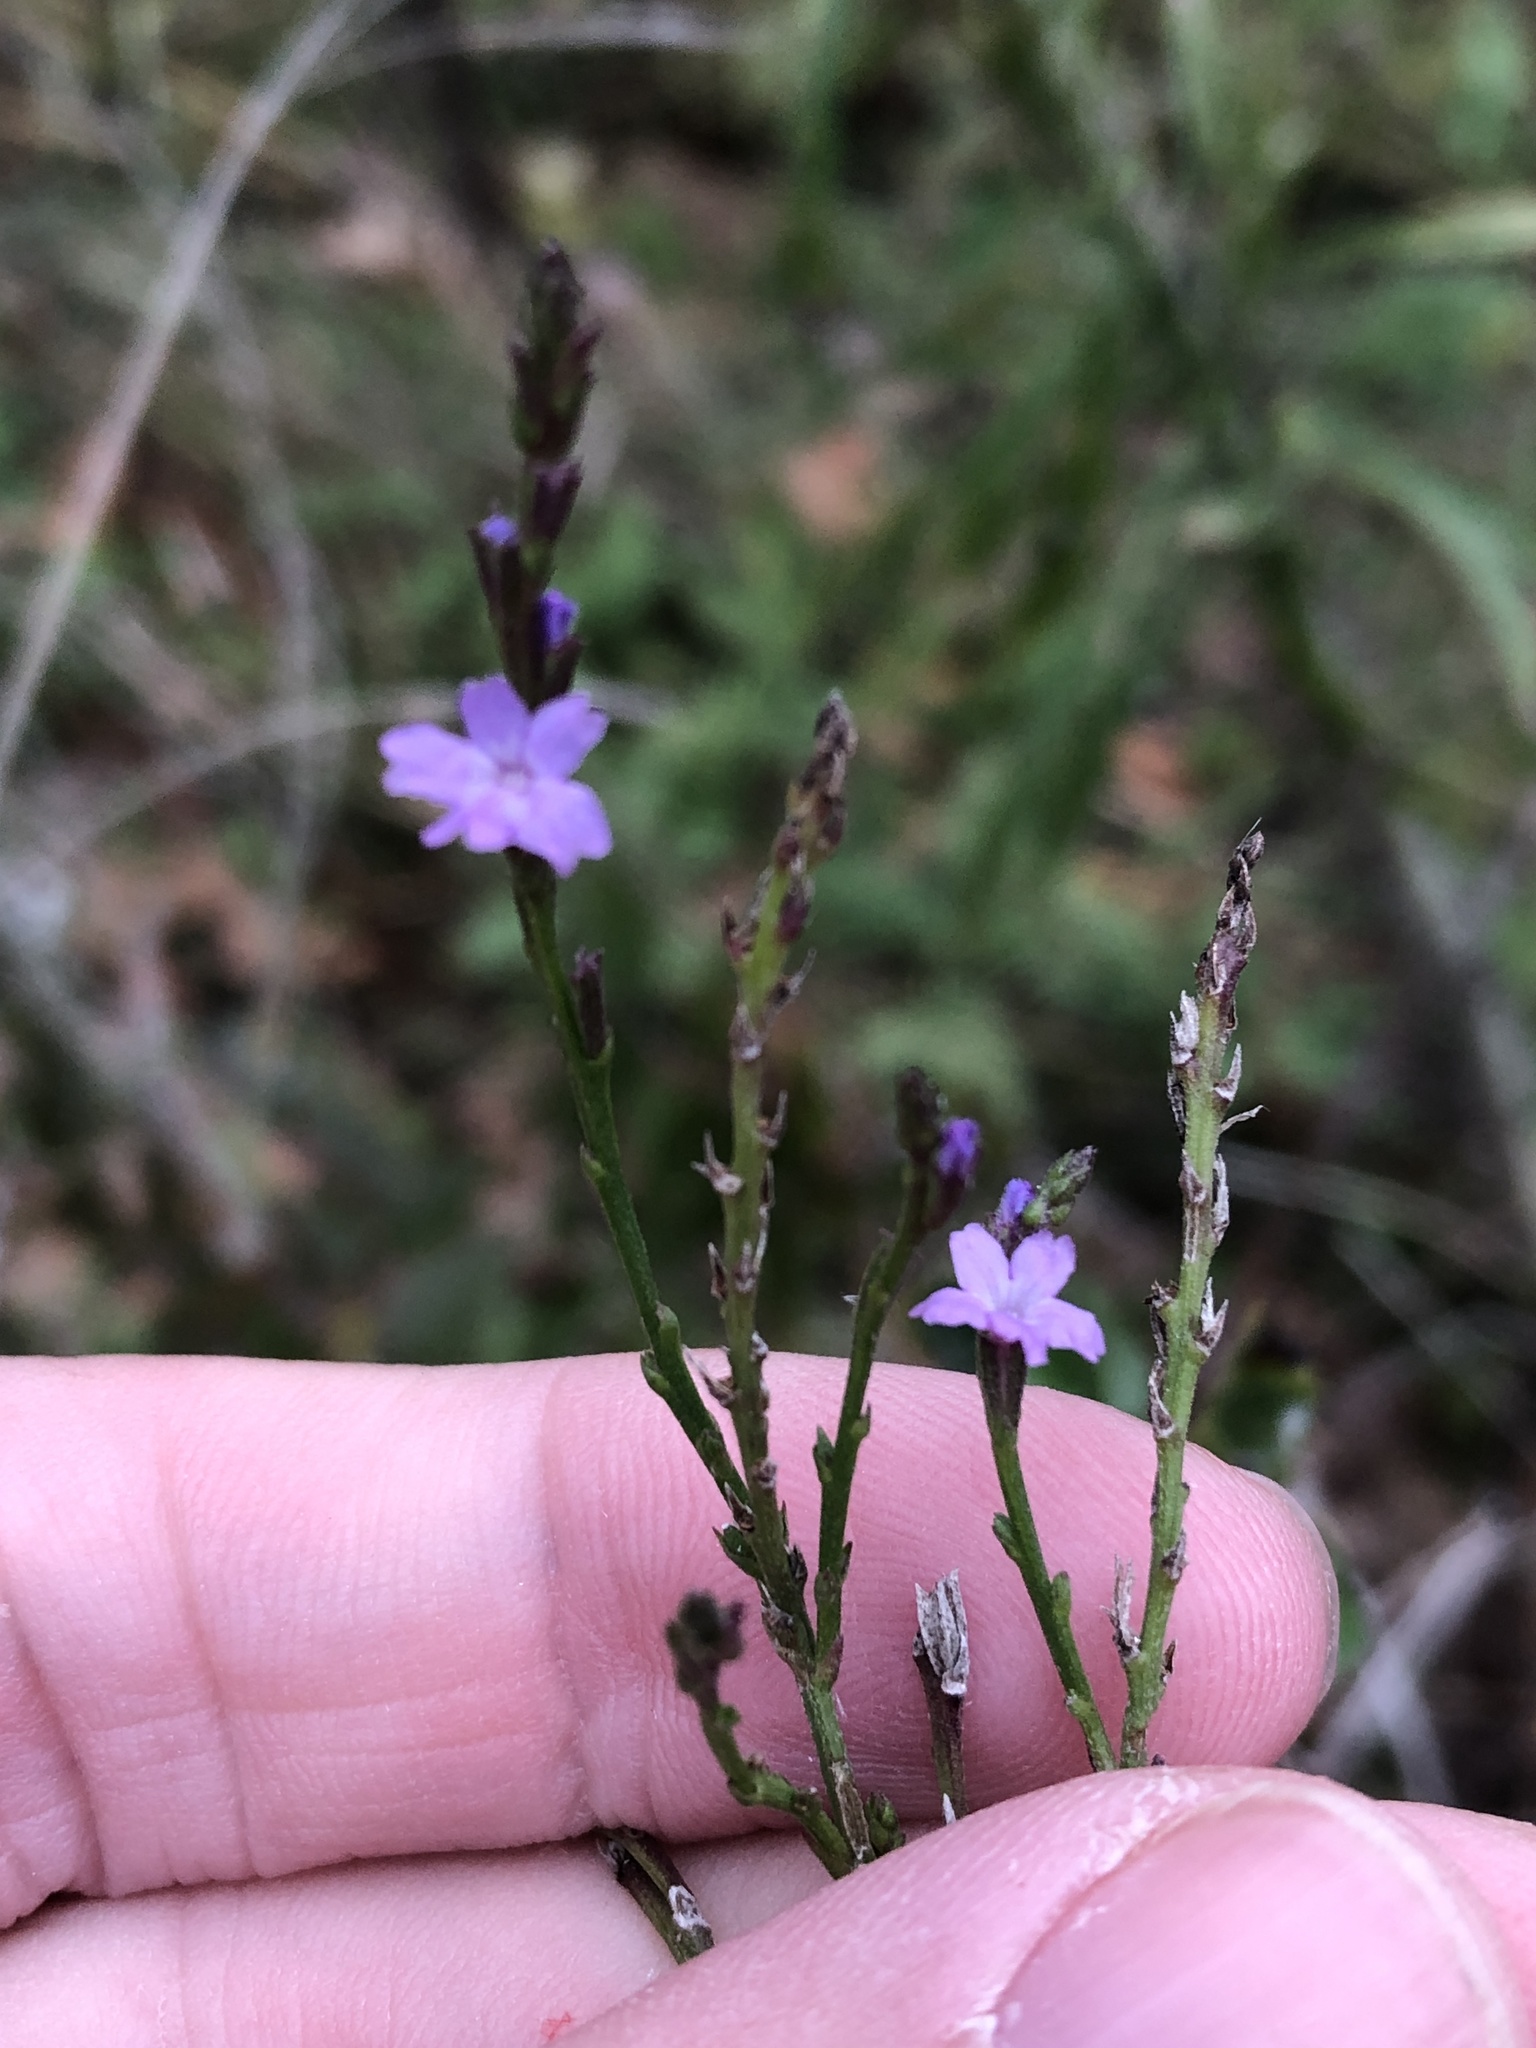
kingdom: Plantae
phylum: Tracheophyta
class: Magnoliopsida
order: Lamiales
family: Verbenaceae
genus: Verbena
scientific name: Verbena halei
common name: Texas vervain
